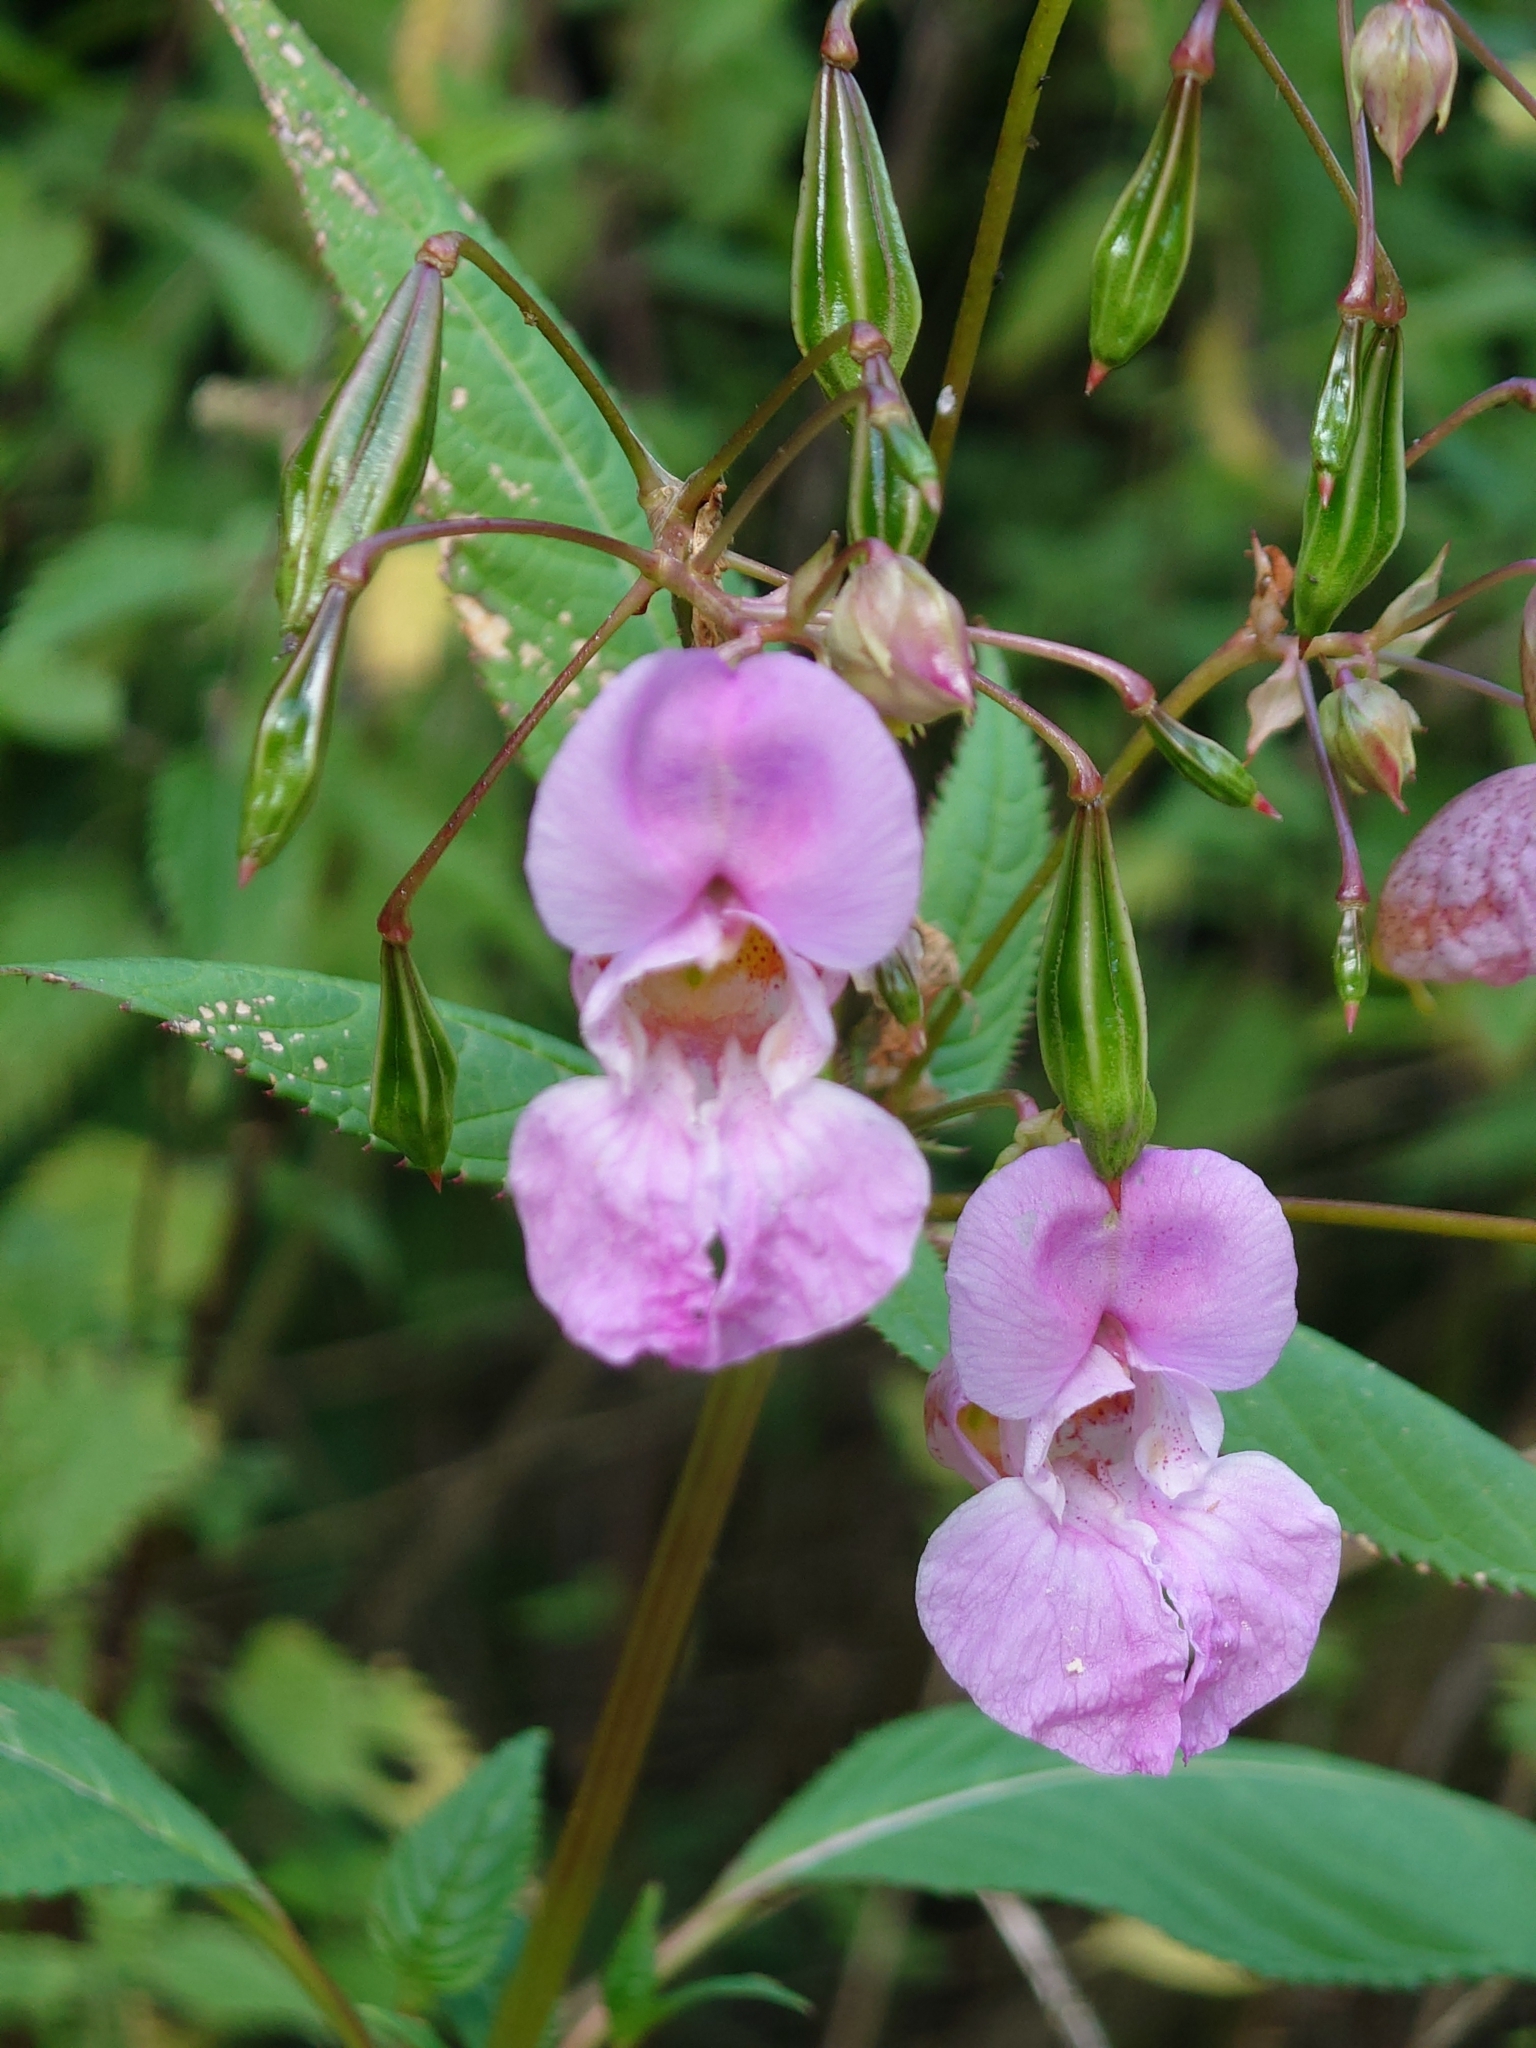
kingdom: Plantae
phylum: Tracheophyta
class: Magnoliopsida
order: Ericales
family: Balsaminaceae
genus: Impatiens
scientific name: Impatiens glandulifera
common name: Himalayan balsam
